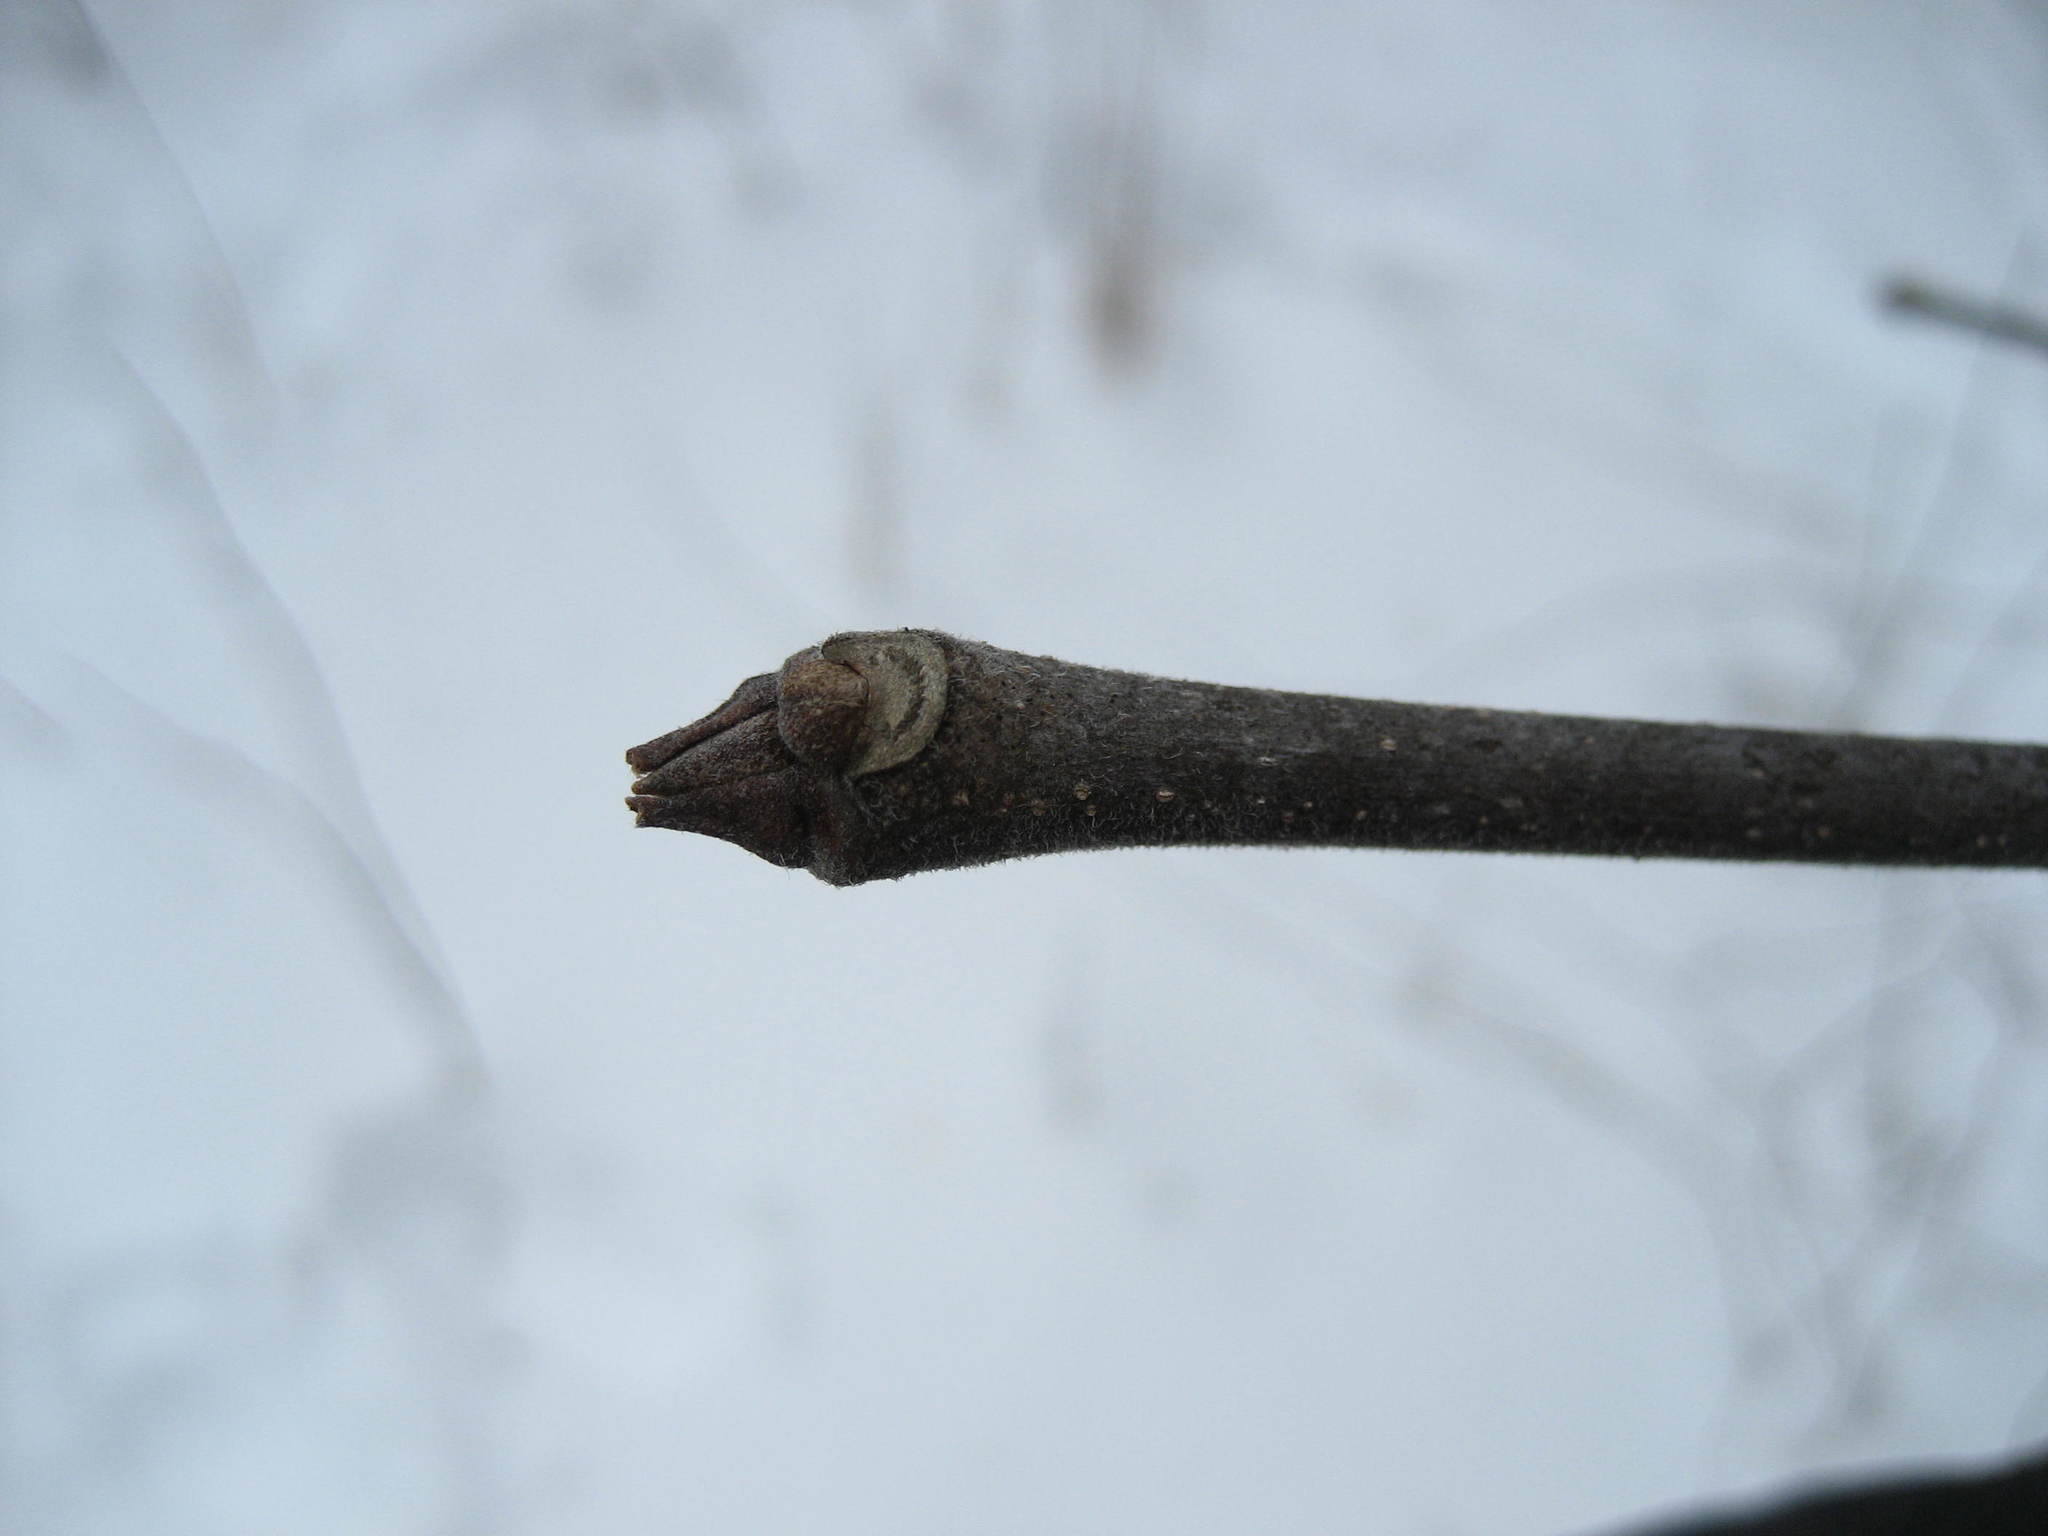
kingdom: Plantae
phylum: Tracheophyta
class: Magnoliopsida
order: Lamiales
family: Oleaceae
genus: Fraxinus
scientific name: Fraxinus pennsylvanica
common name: Green ash
